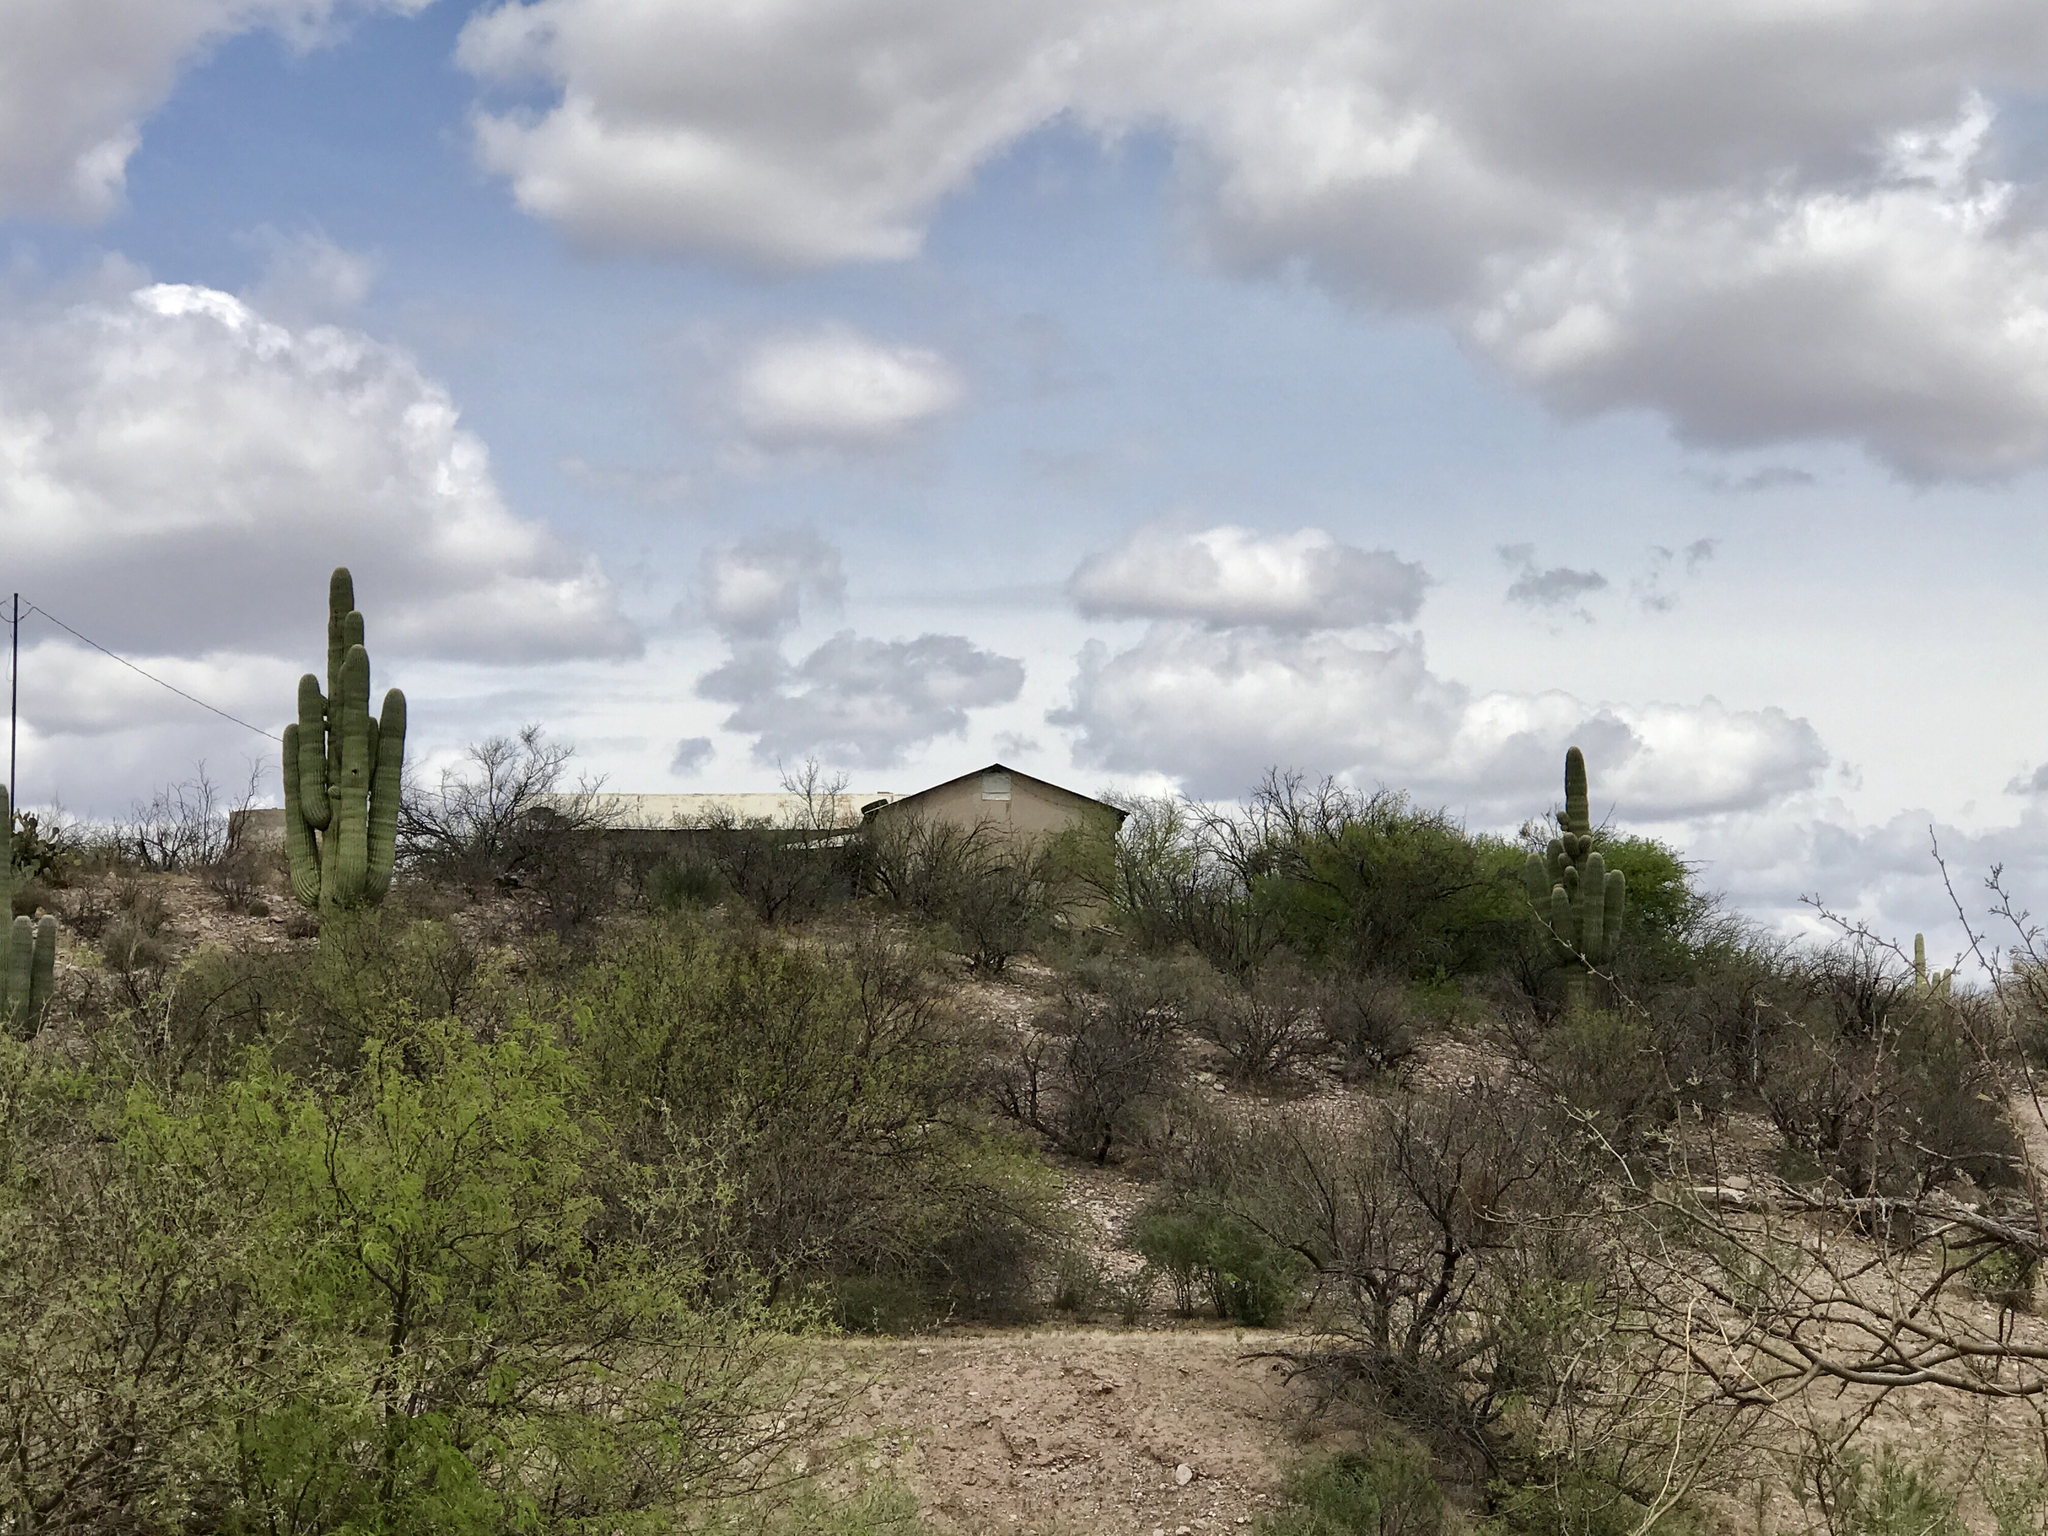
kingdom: Plantae
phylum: Tracheophyta
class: Magnoliopsida
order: Caryophyllales
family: Cactaceae
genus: Carnegiea
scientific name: Carnegiea gigantea
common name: Saguaro
